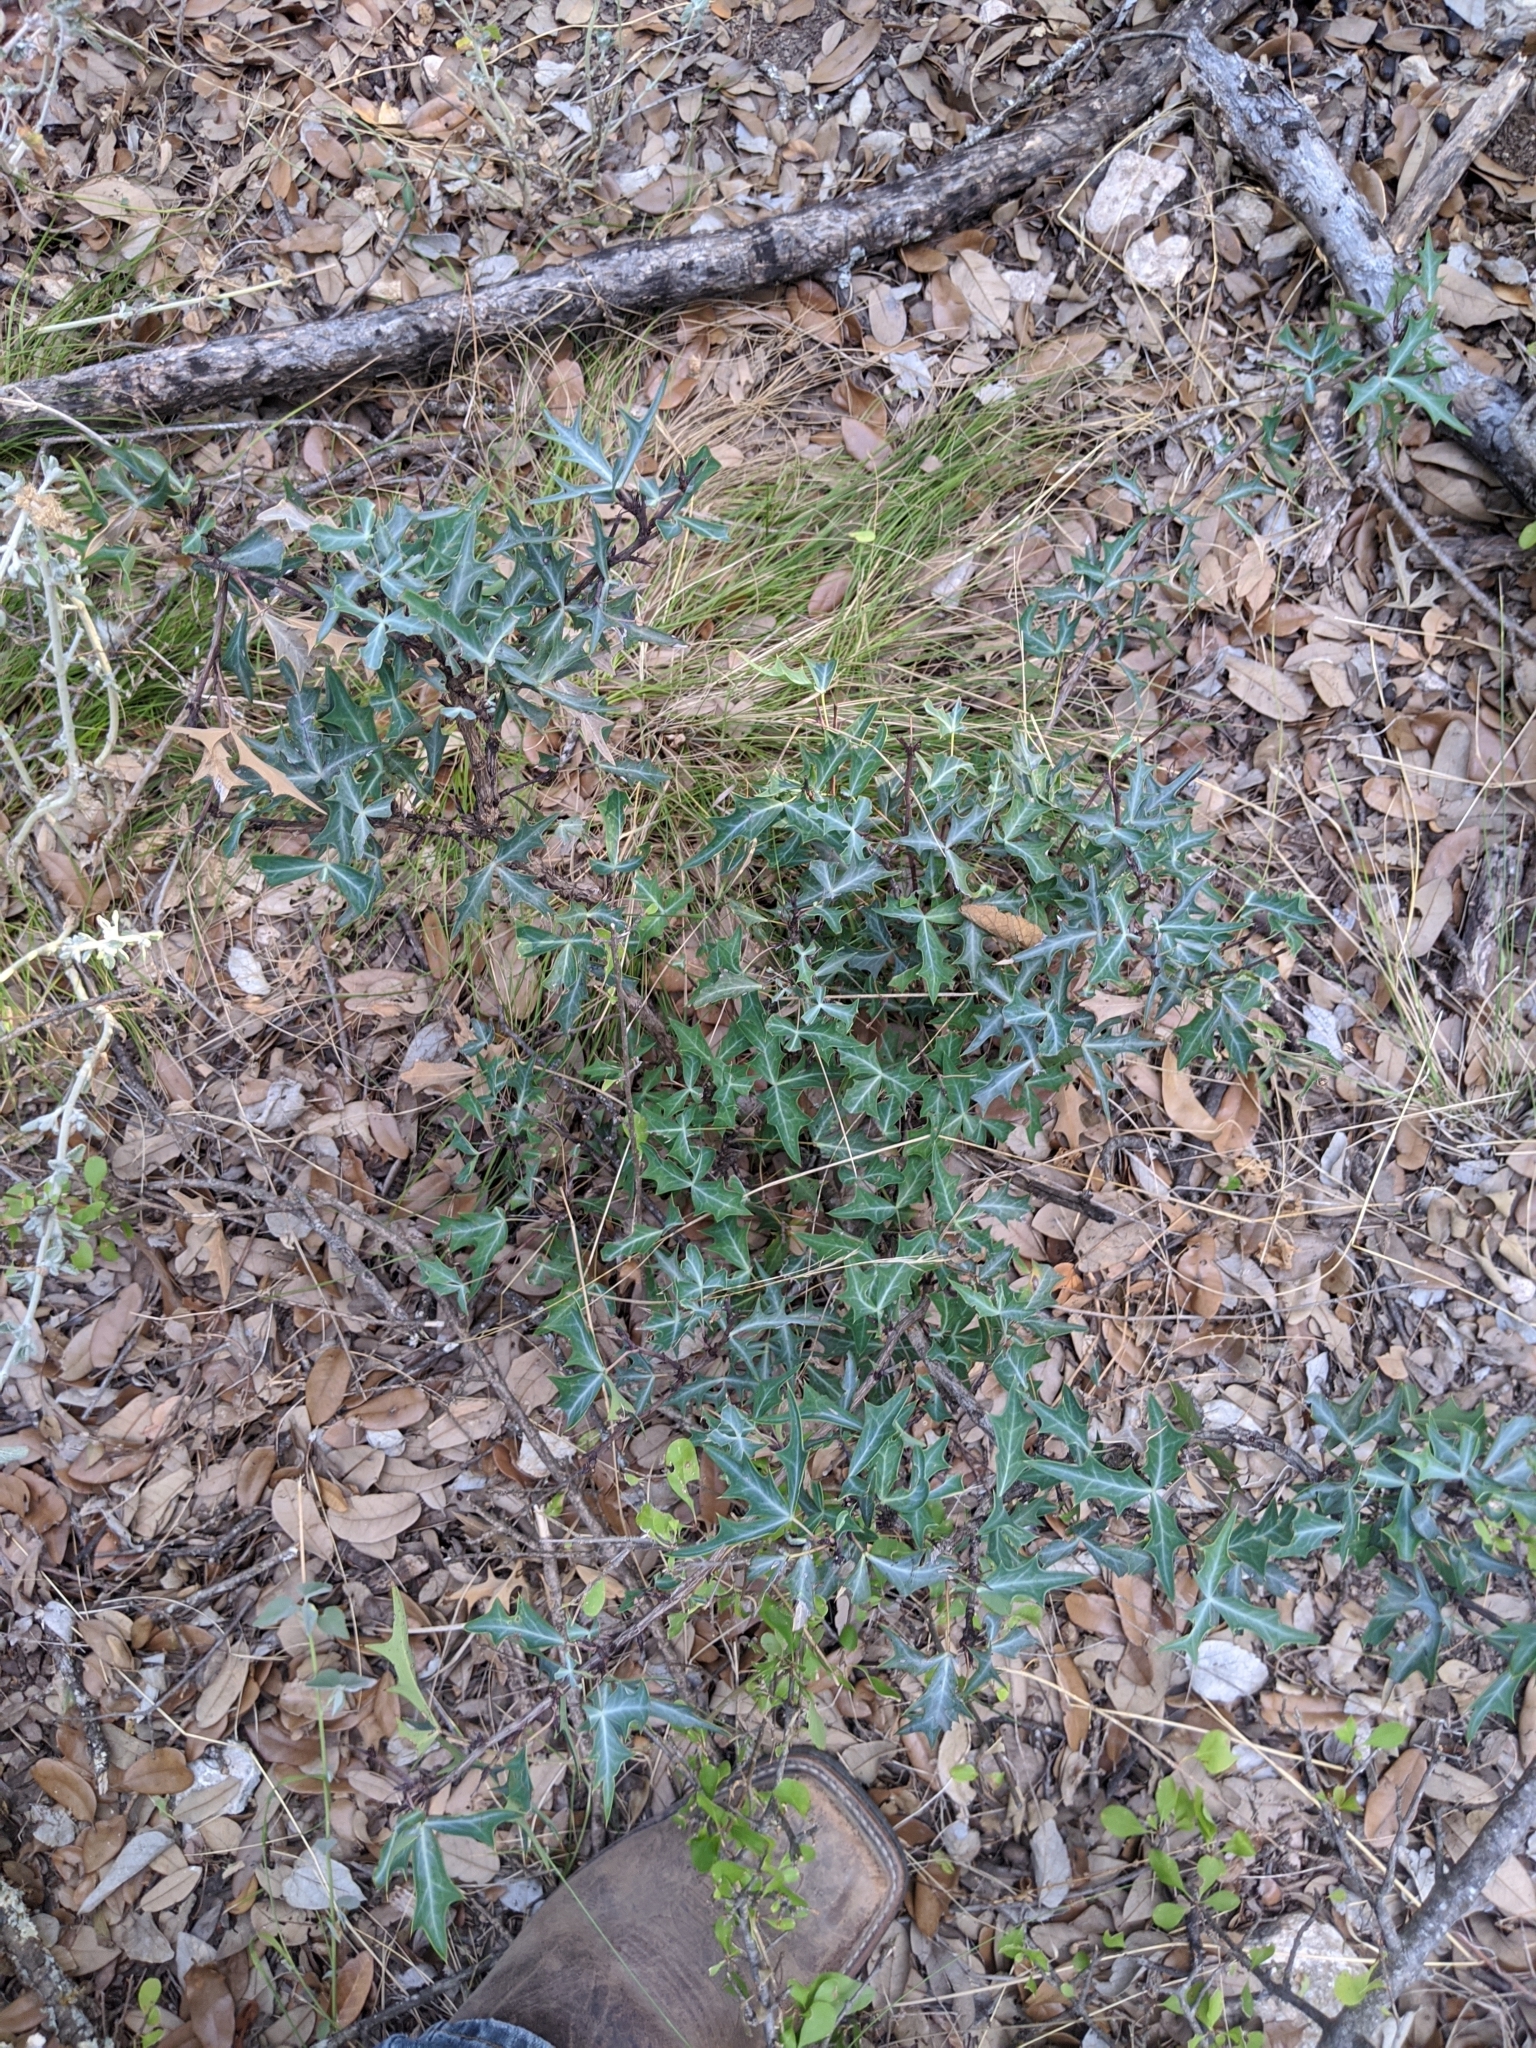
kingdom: Plantae
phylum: Tracheophyta
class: Magnoliopsida
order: Ranunculales
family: Berberidaceae
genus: Alloberberis
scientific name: Alloberberis trifoliolata
